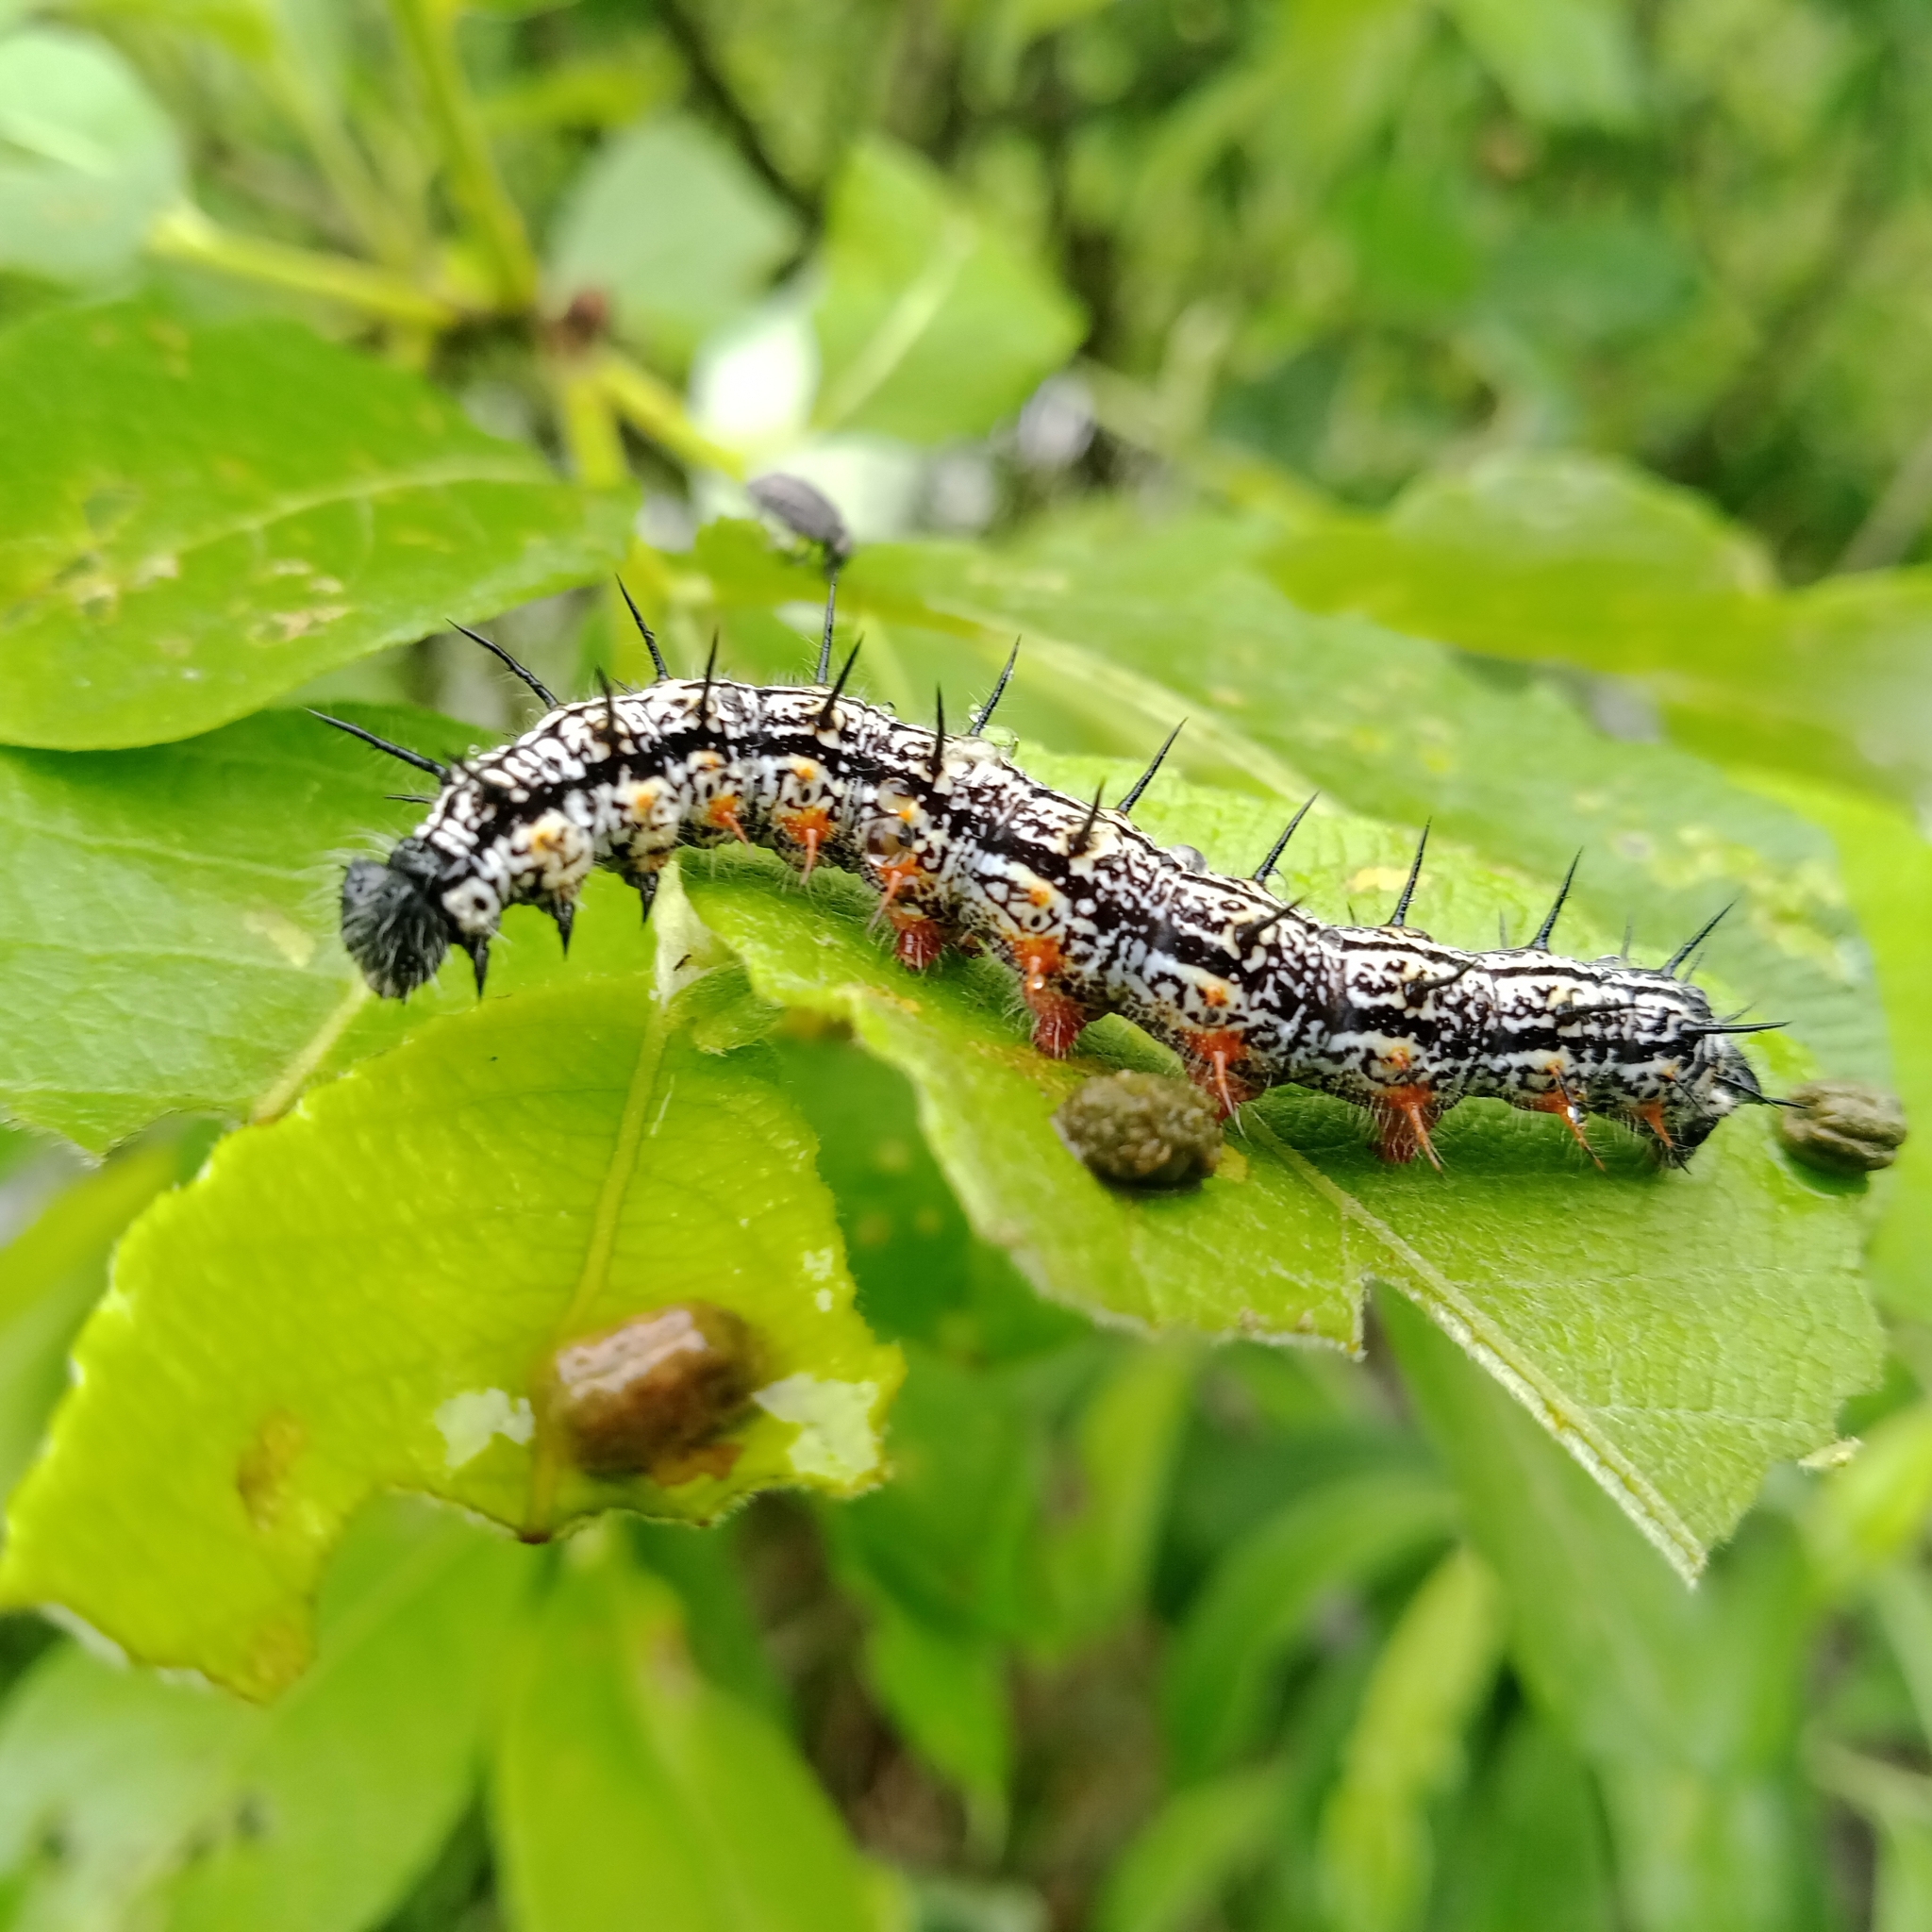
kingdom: Animalia
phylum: Arthropoda
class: Insecta
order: Lepidoptera
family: Nymphalidae
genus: Nymphalis
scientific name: Nymphalis xanthomelas
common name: Scarce tortoiseshell
